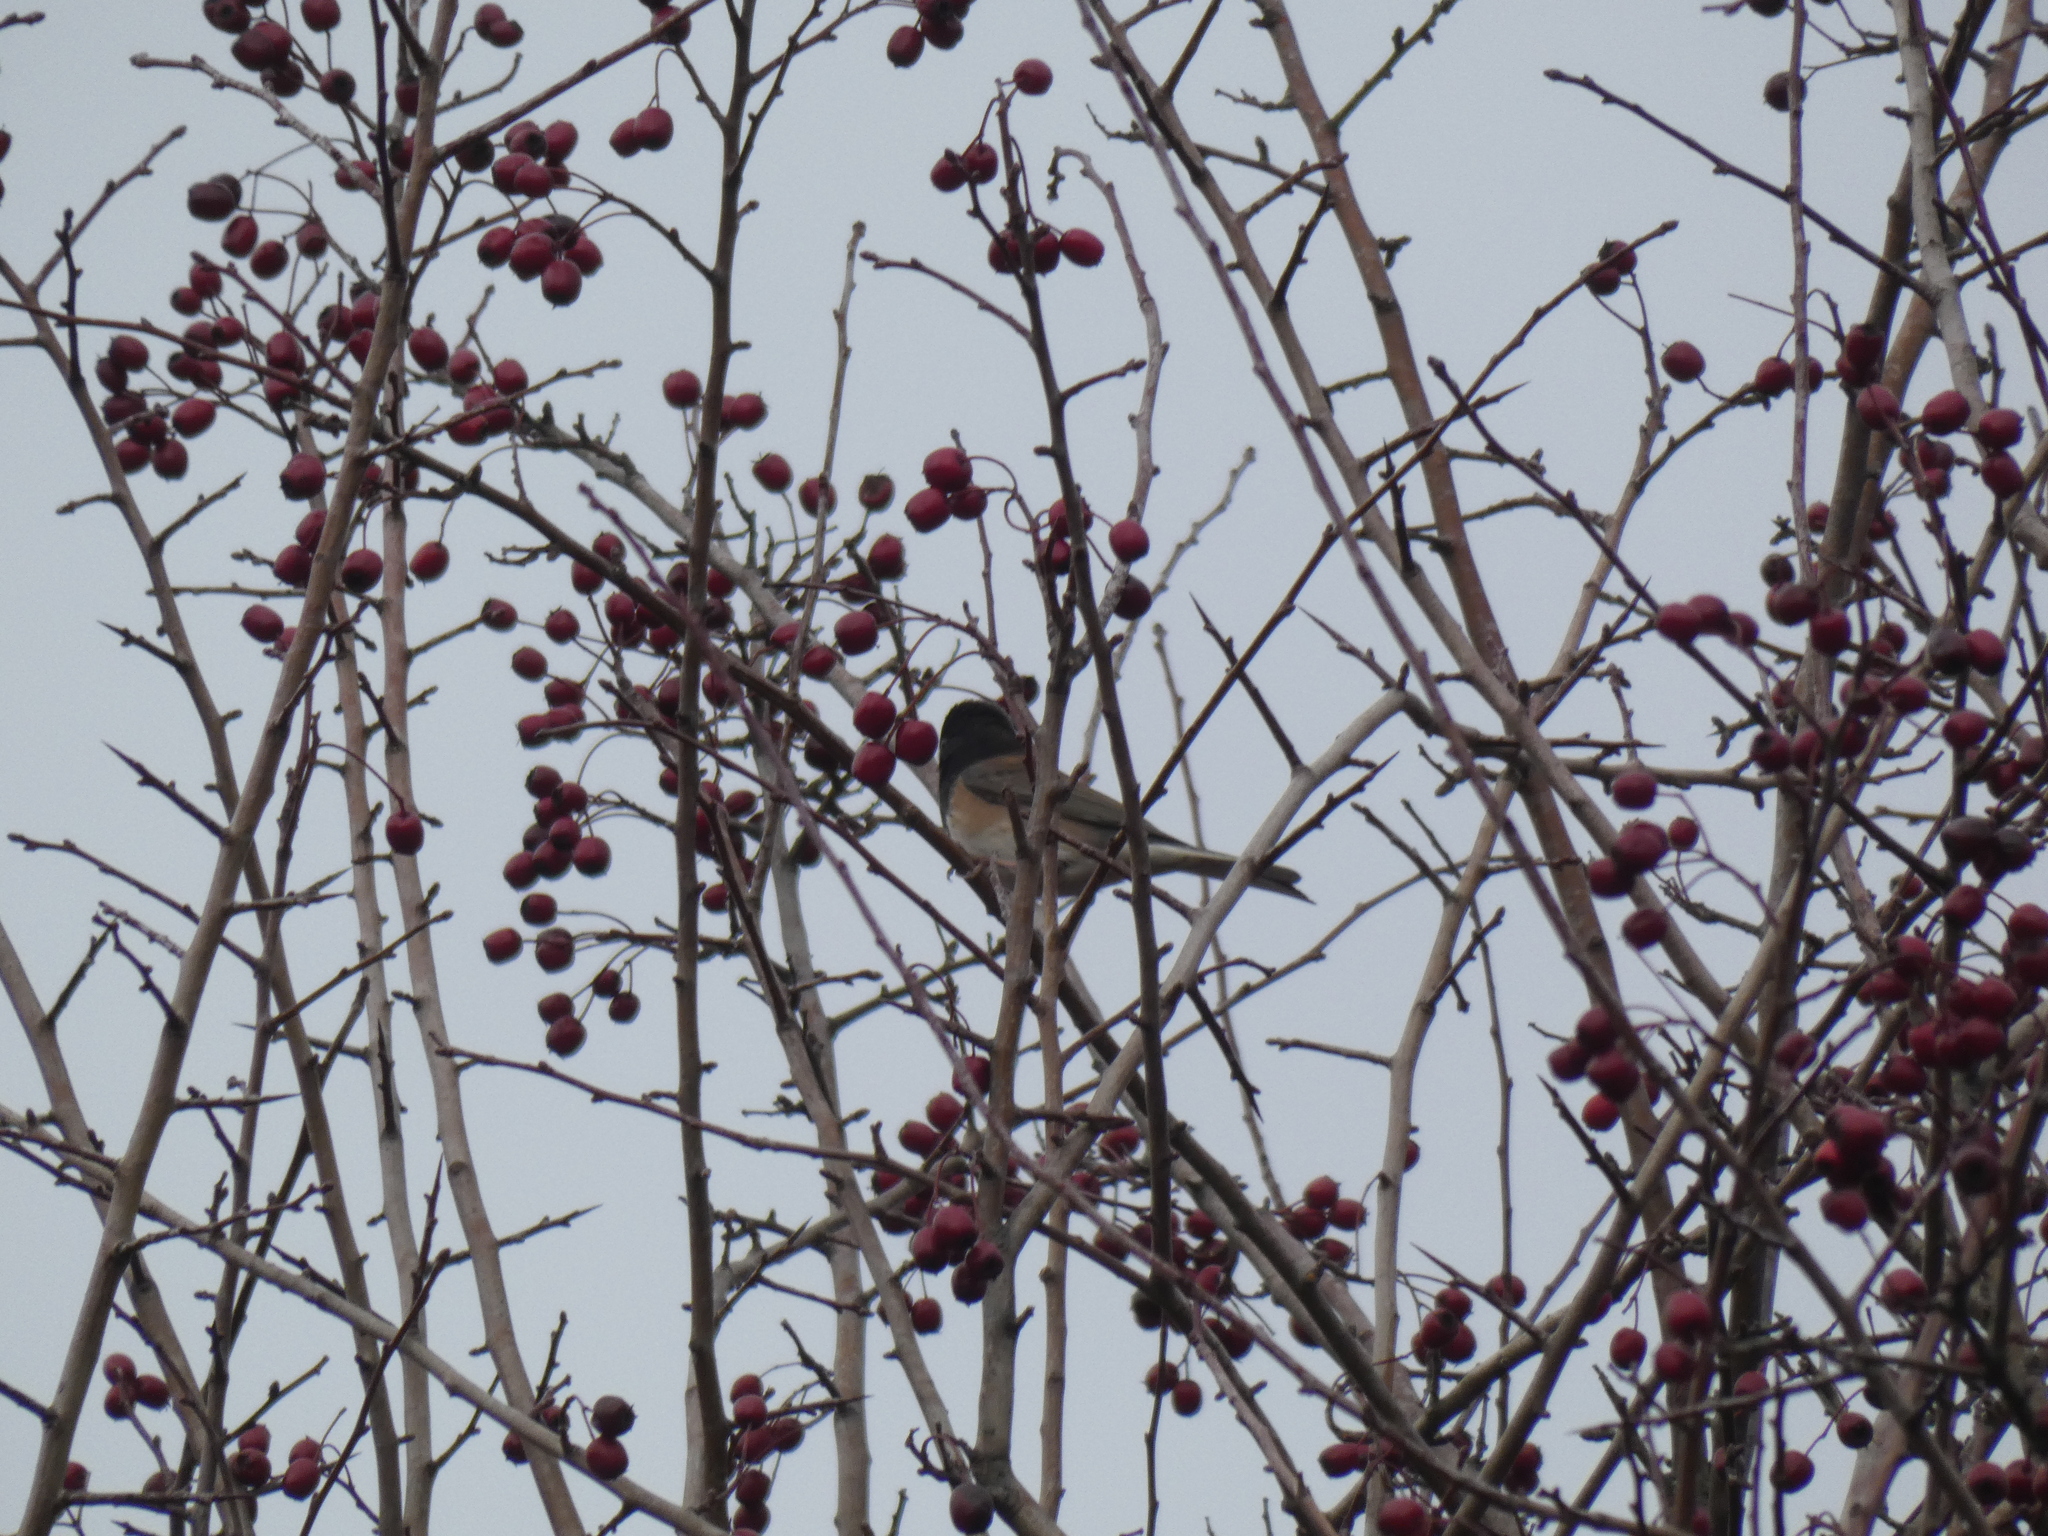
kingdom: Animalia
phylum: Chordata
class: Aves
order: Passeriformes
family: Passerellidae
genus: Junco
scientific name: Junco hyemalis
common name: Dark-eyed junco
